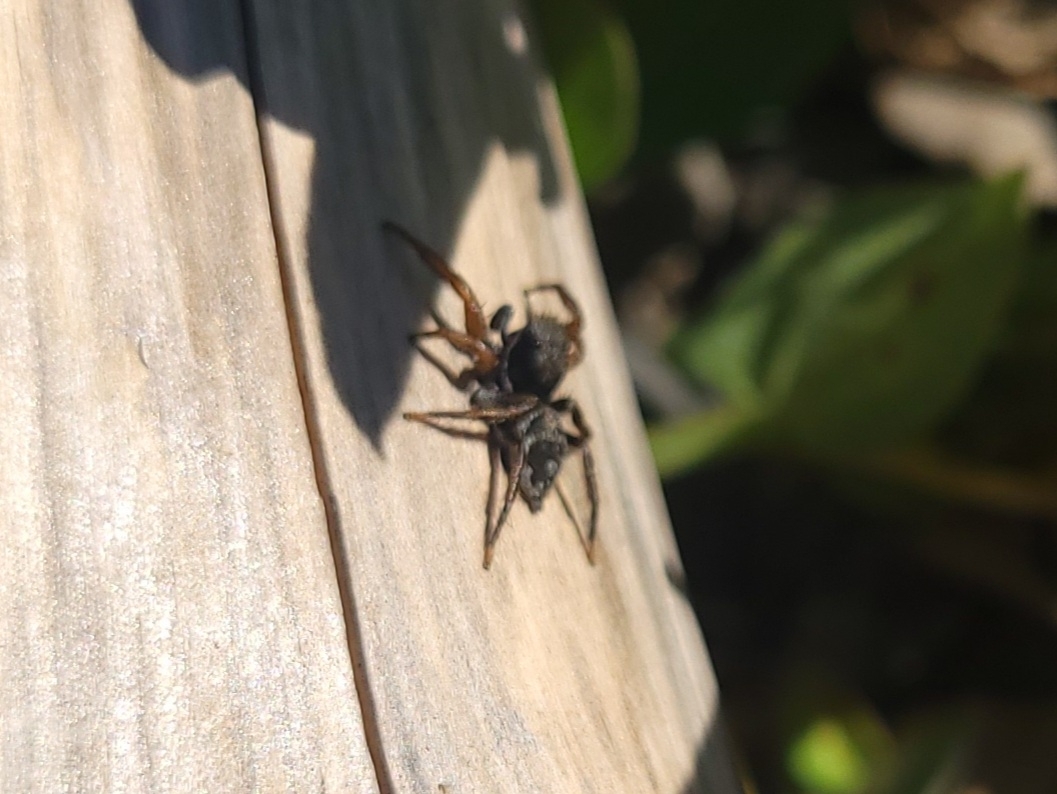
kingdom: Animalia
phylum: Arthropoda
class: Arachnida
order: Araneae
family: Salticidae
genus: Habronattus
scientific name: Habronattus borealis
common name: Boreal paradise spider
